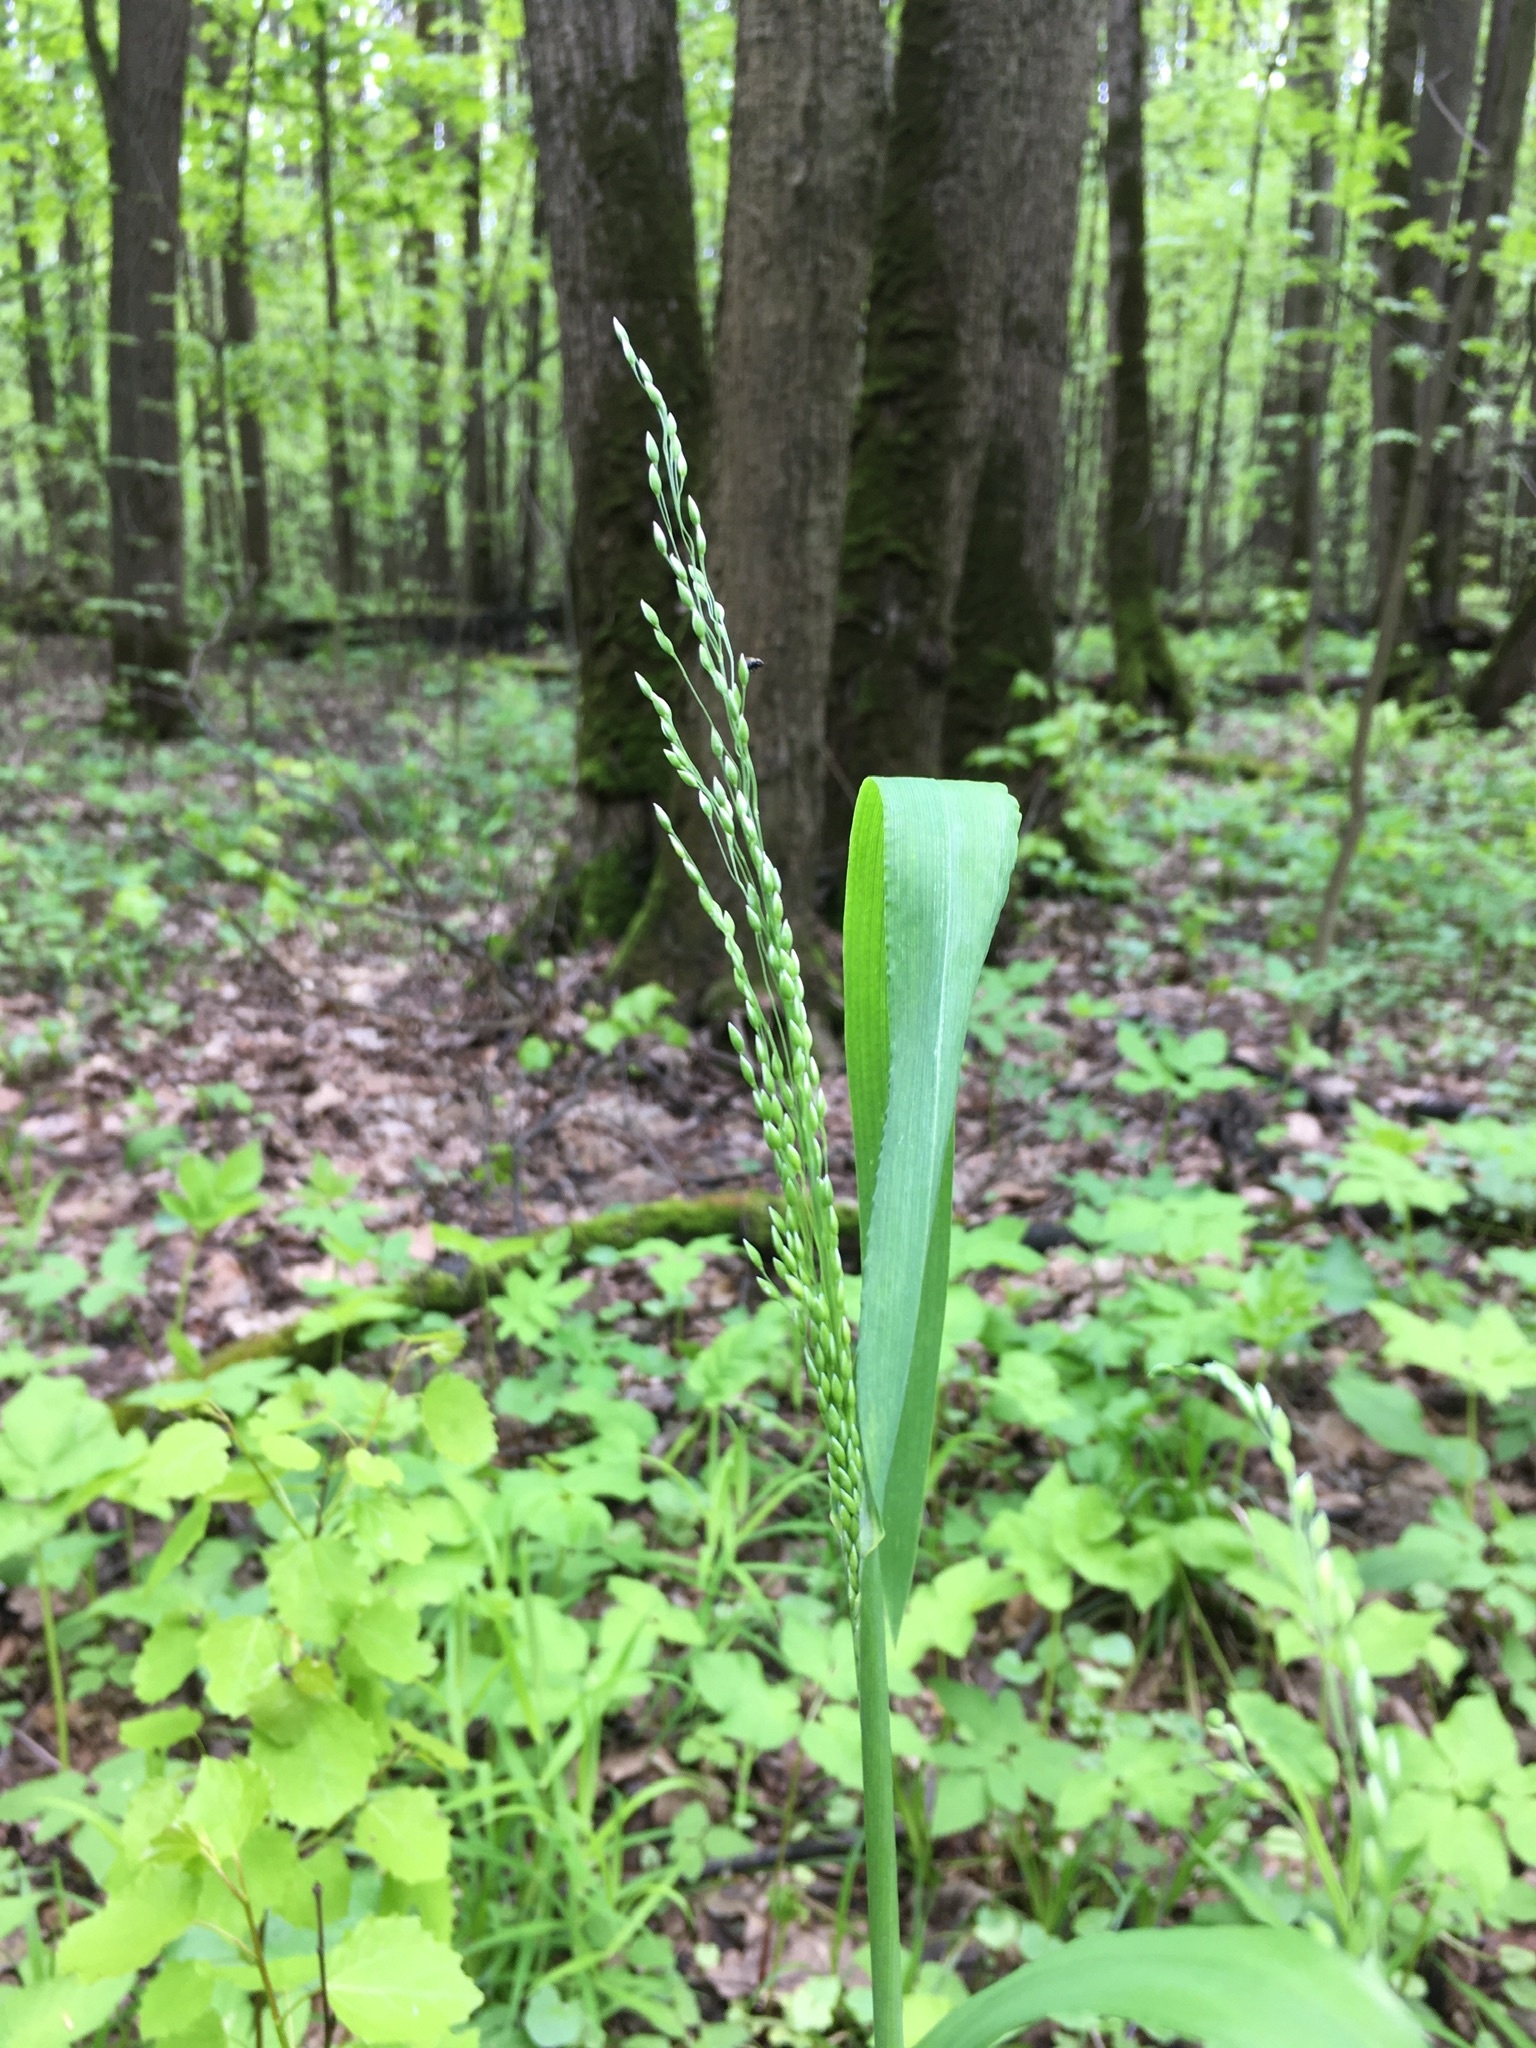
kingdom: Plantae
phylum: Tracheophyta
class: Liliopsida
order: Poales
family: Poaceae
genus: Milium
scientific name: Milium effusum
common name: Wood millet
